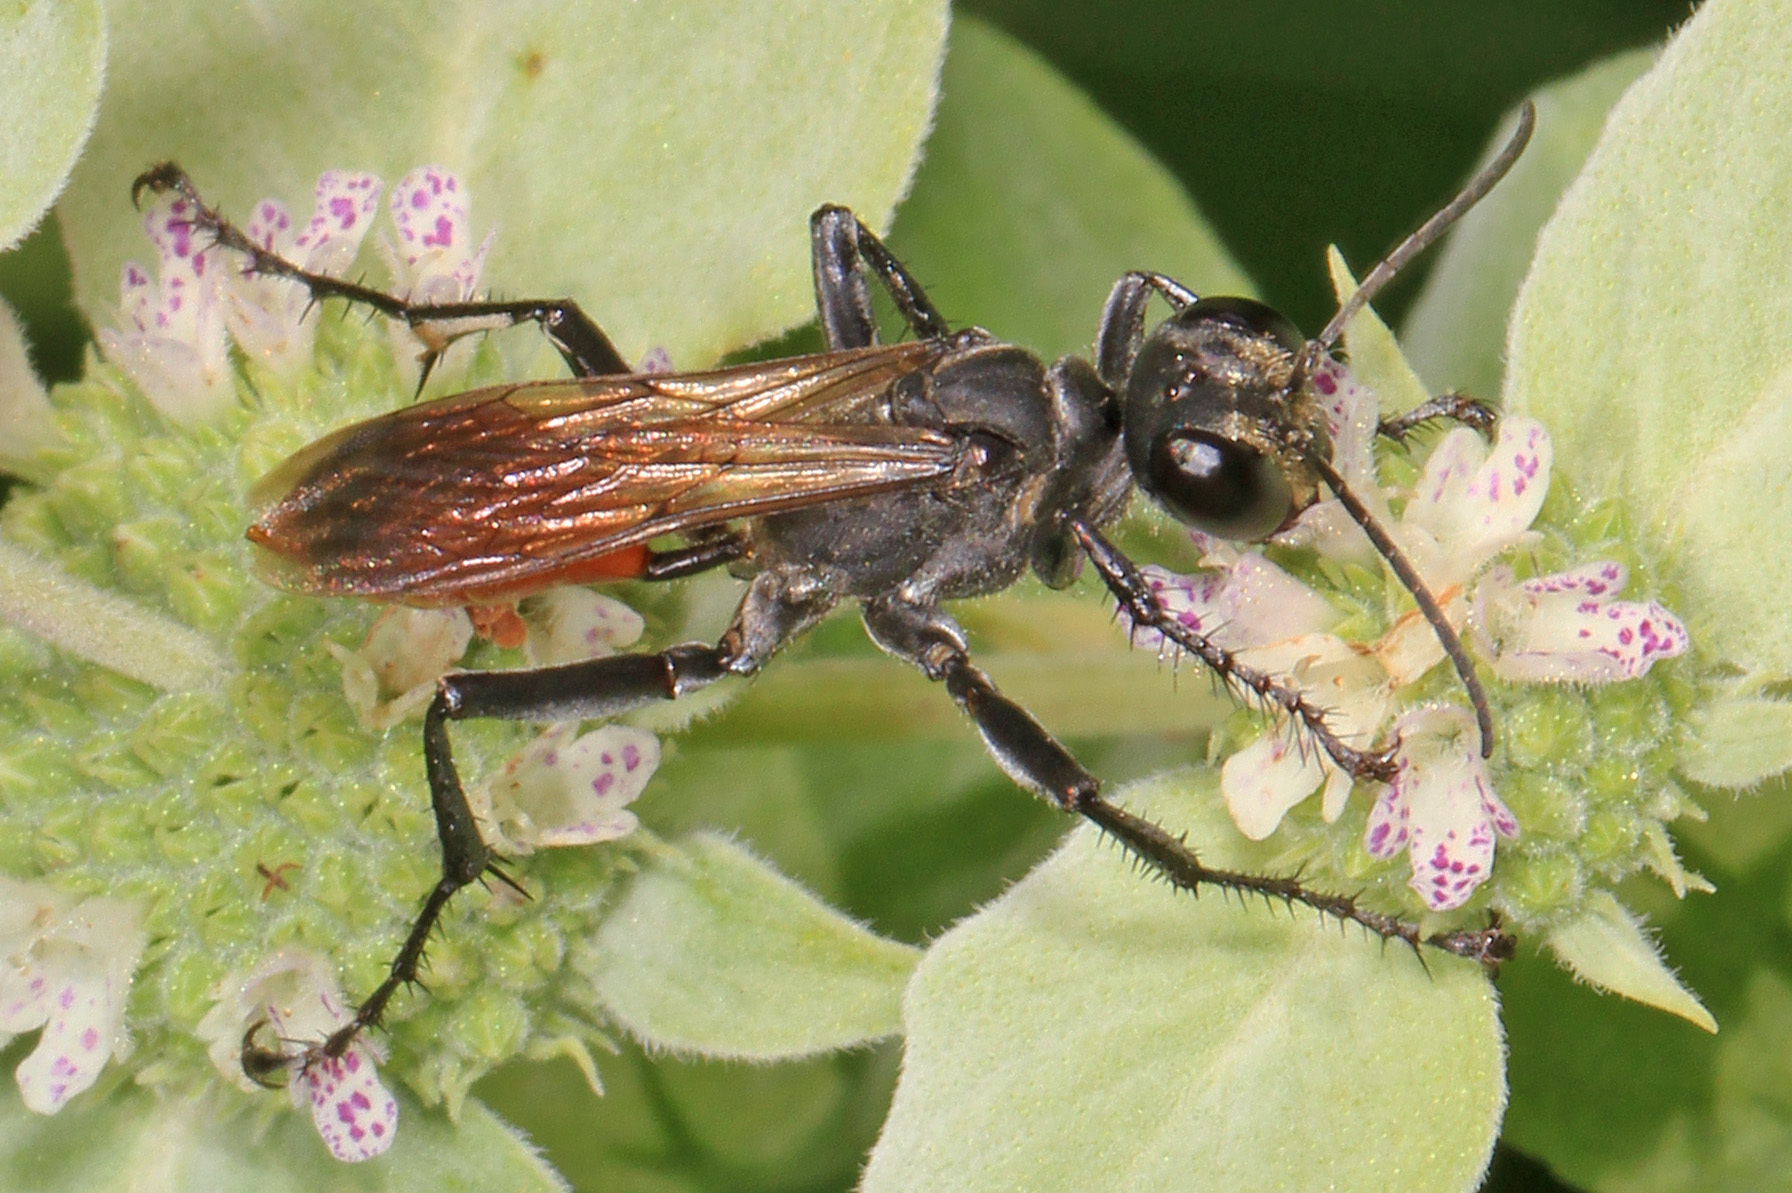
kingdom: Animalia
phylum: Arthropoda
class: Insecta
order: Hymenoptera
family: Sphecidae
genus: Prionyx
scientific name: Prionyx parkeri
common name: Parker's thread-waisted wasp
